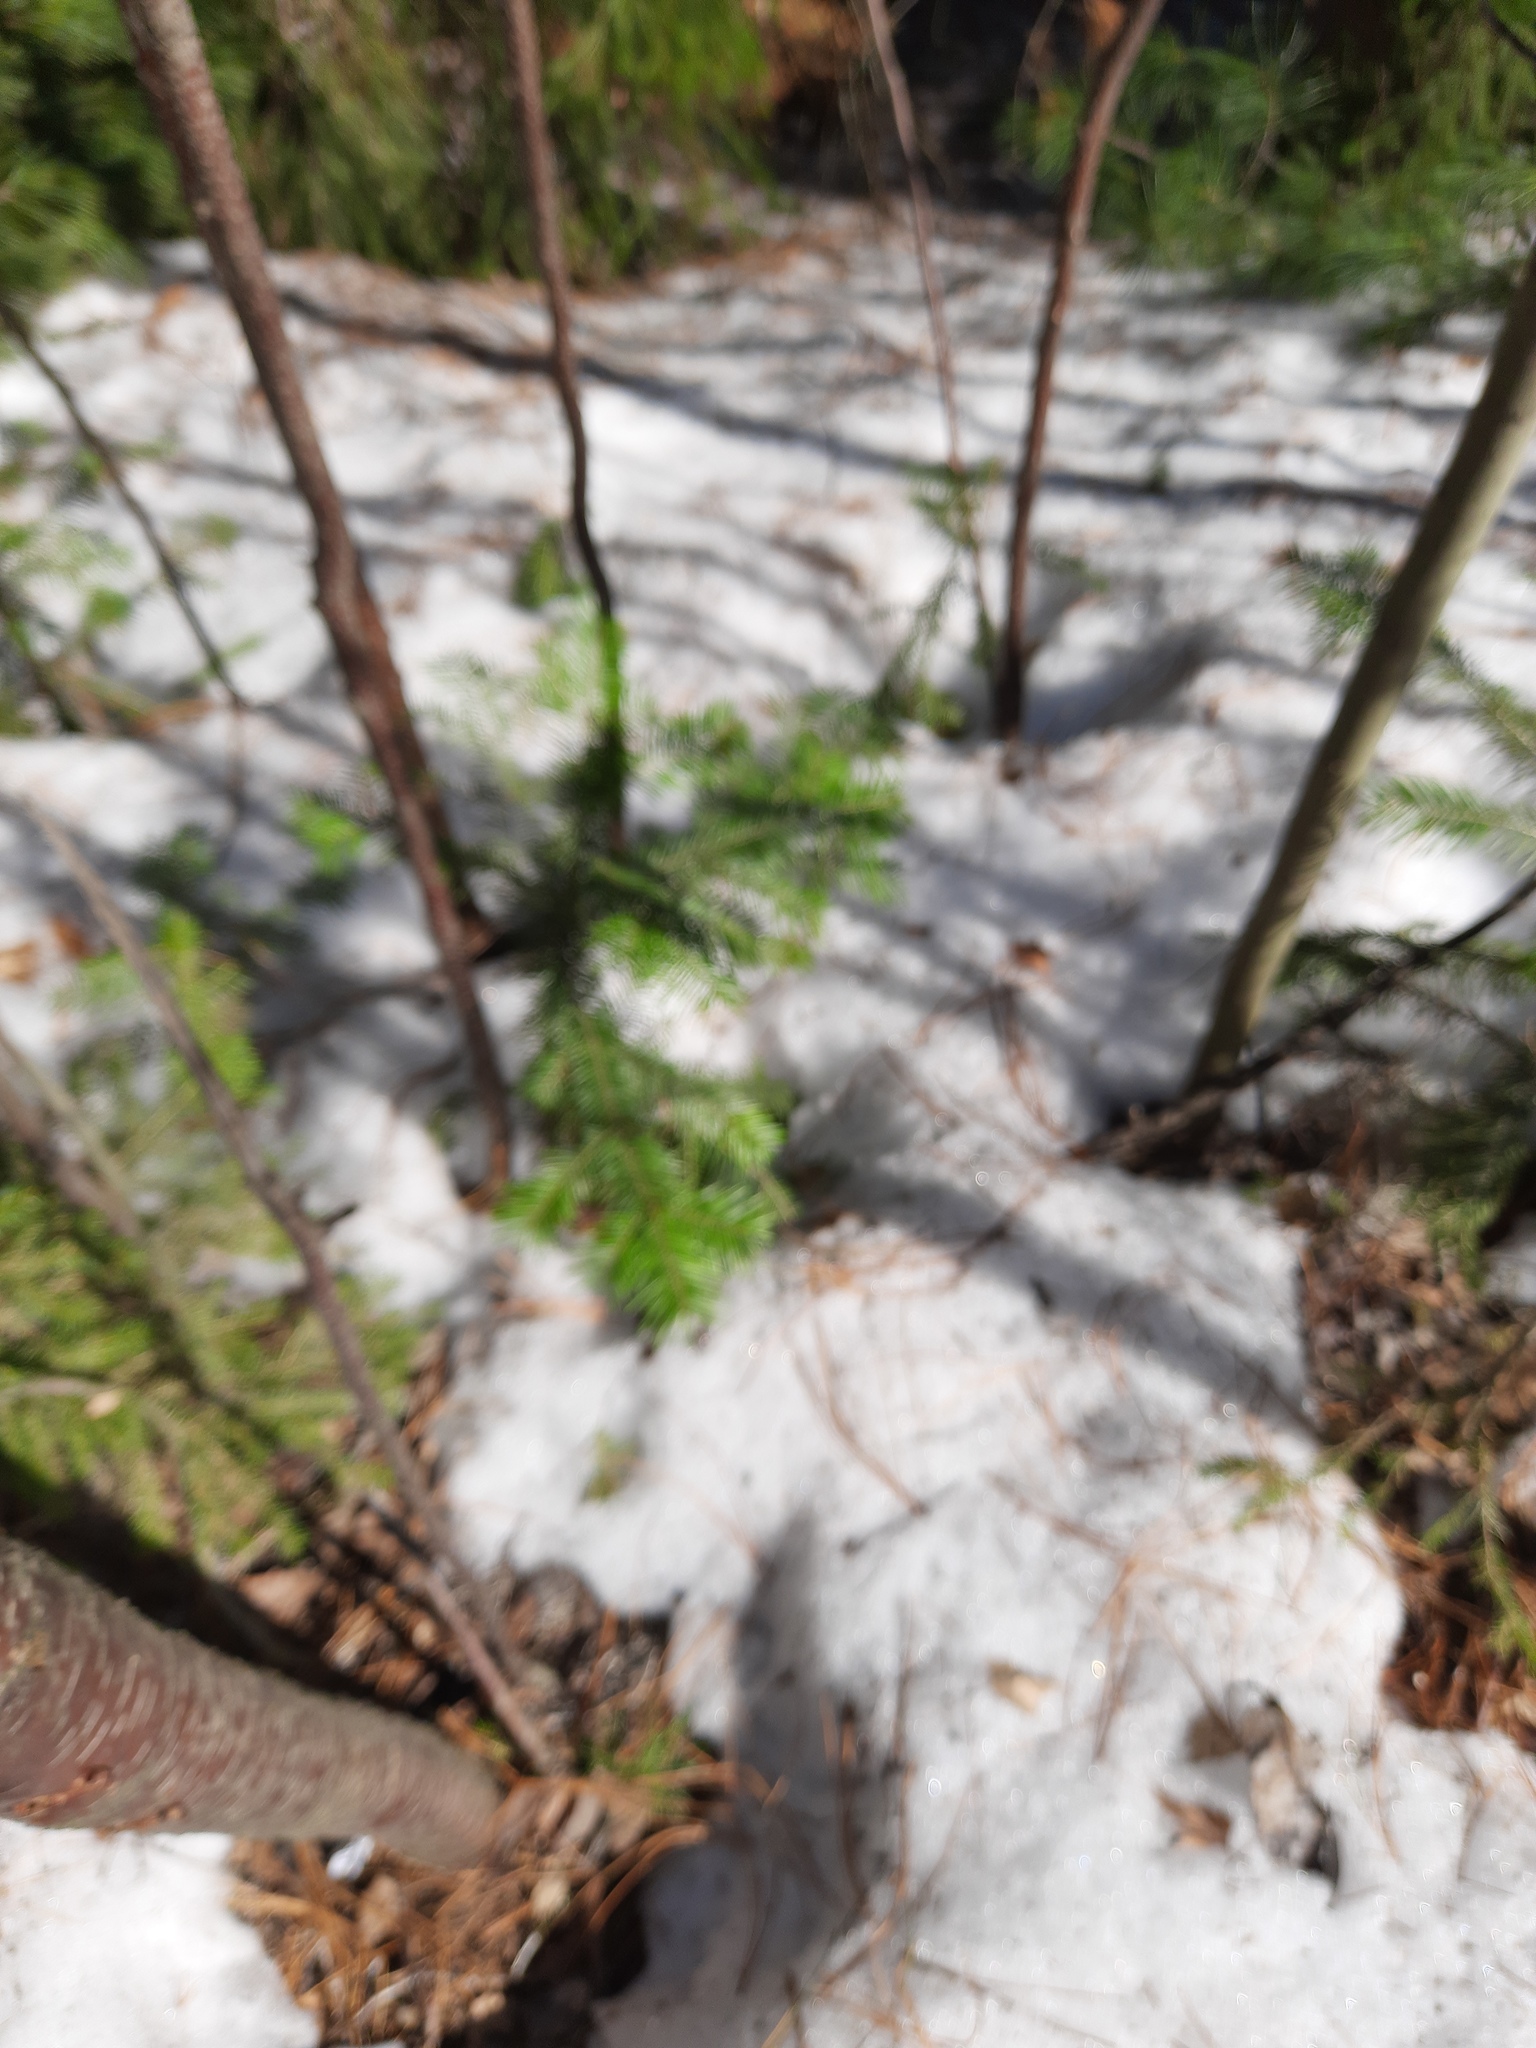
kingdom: Plantae
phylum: Tracheophyta
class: Pinopsida
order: Pinales
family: Pinaceae
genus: Abies
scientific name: Abies sibirica
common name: Siberian fir
